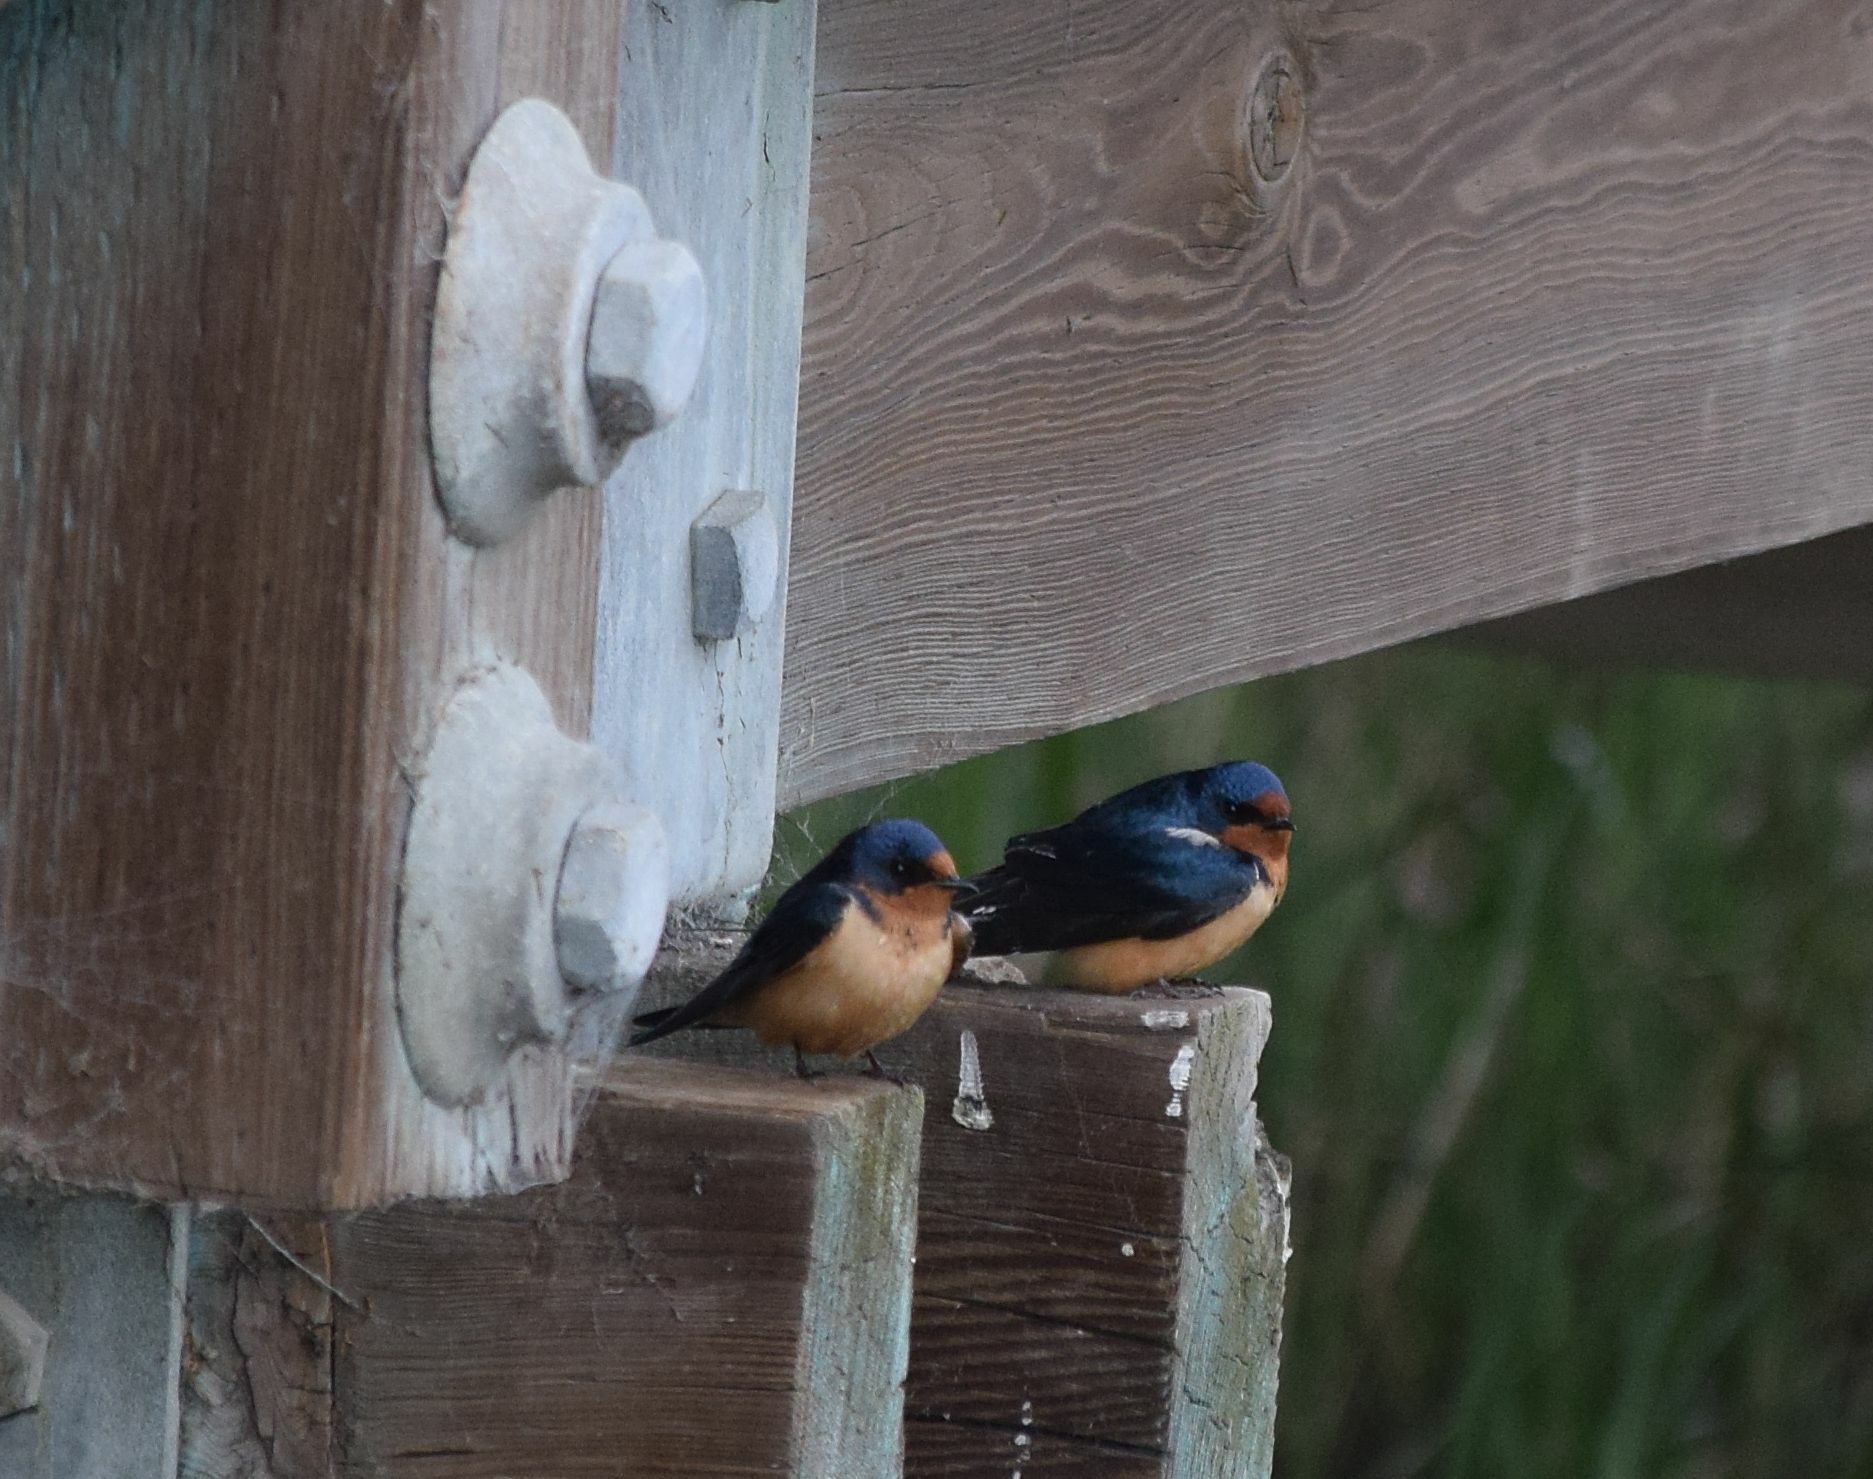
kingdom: Animalia
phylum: Chordata
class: Aves
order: Passeriformes
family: Hirundinidae
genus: Hirundo
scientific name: Hirundo rustica
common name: Barn swallow
